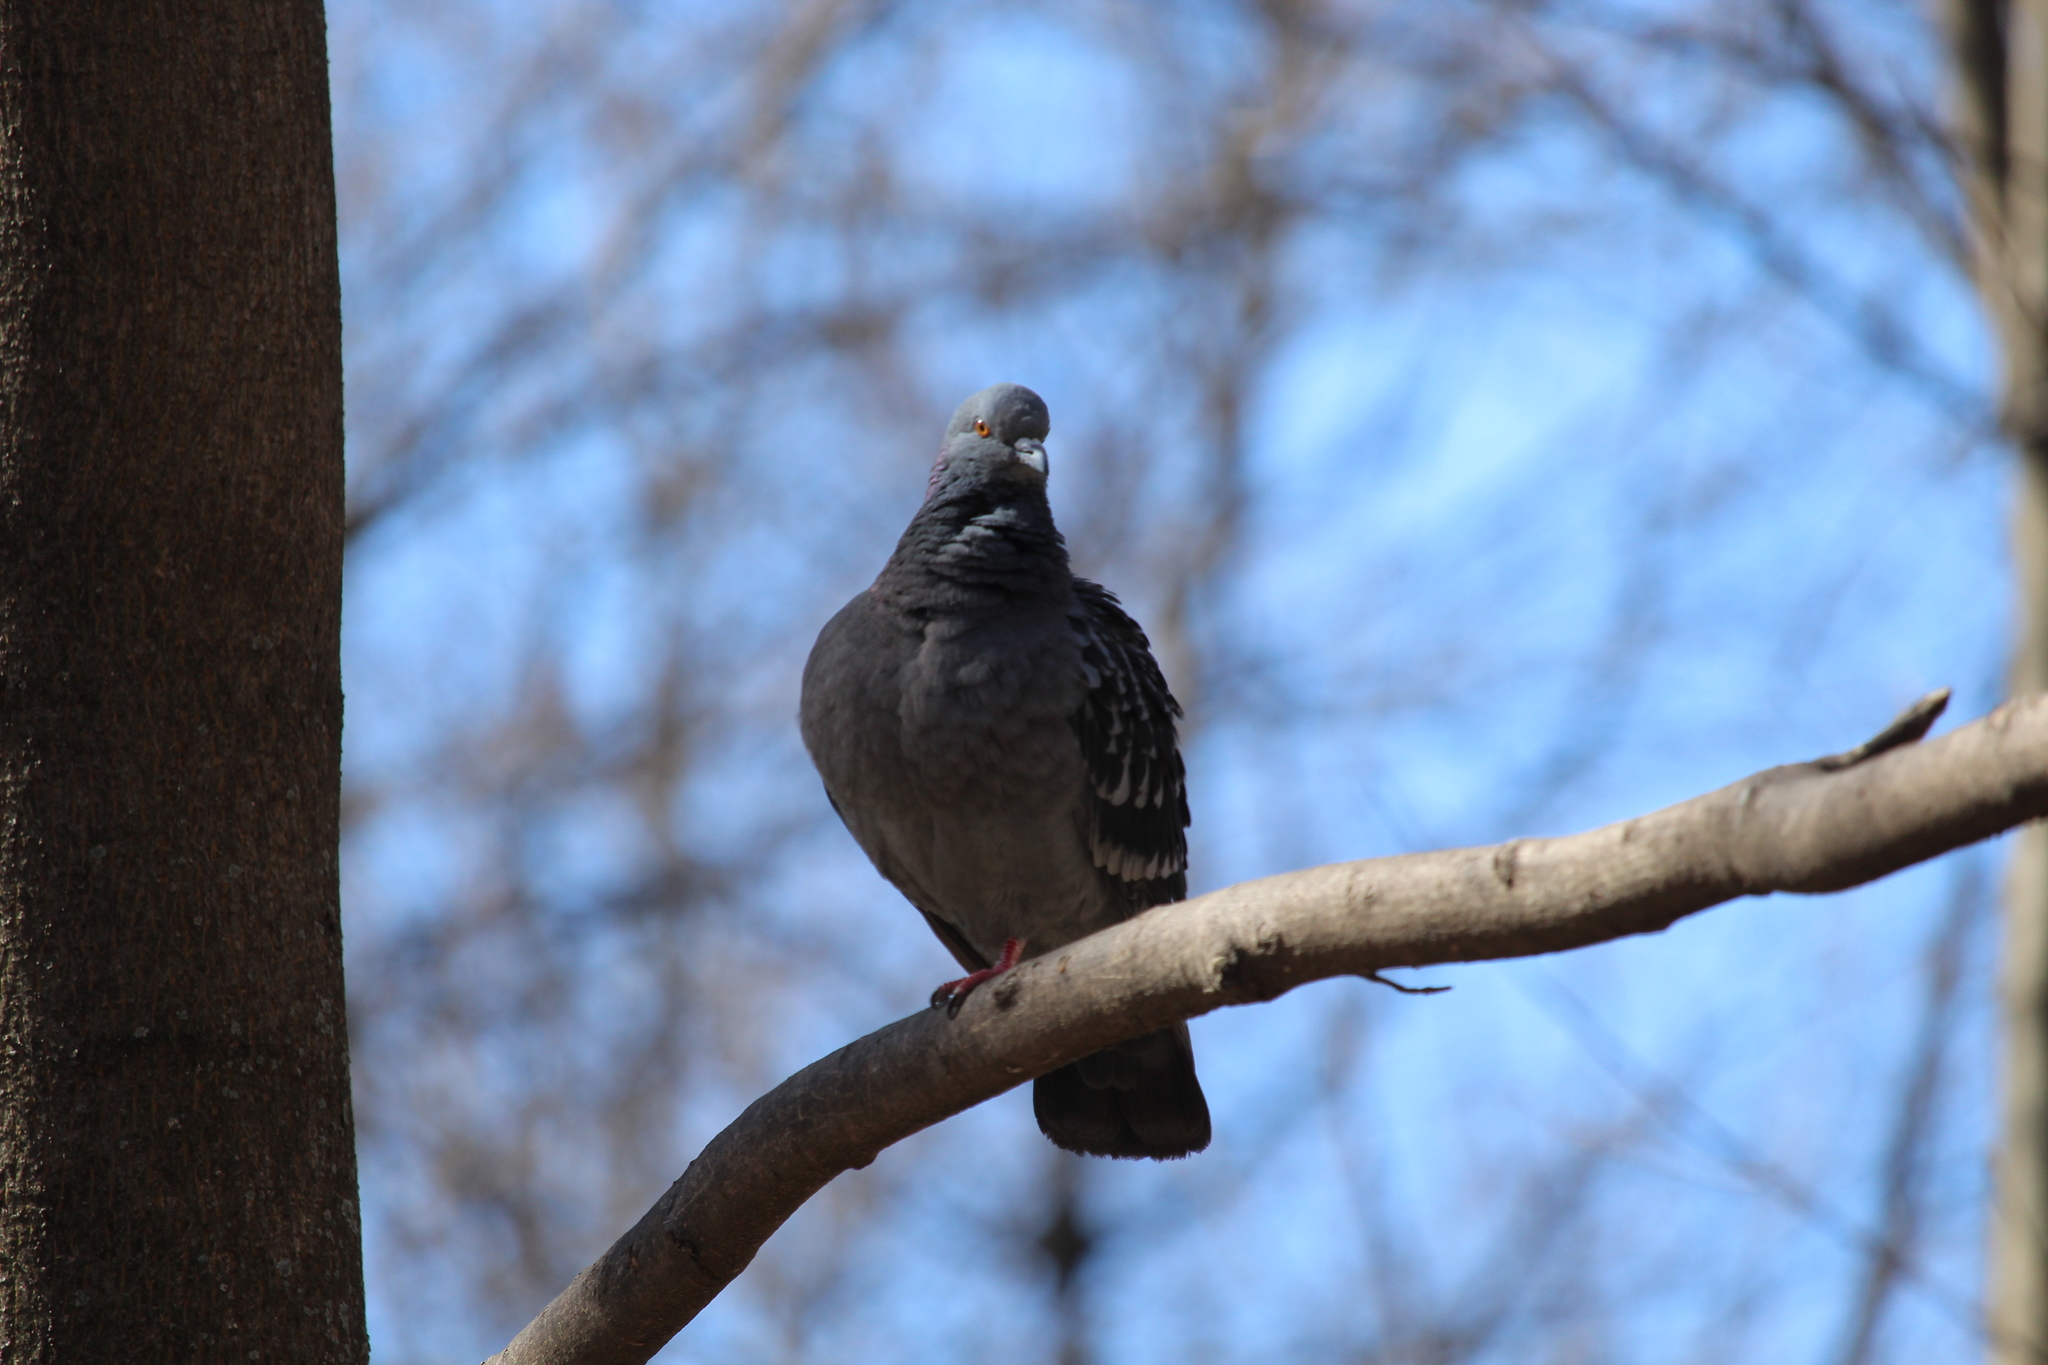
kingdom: Animalia
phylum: Chordata
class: Aves
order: Columbiformes
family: Columbidae
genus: Columba
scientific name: Columba livia
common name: Rock pigeon
